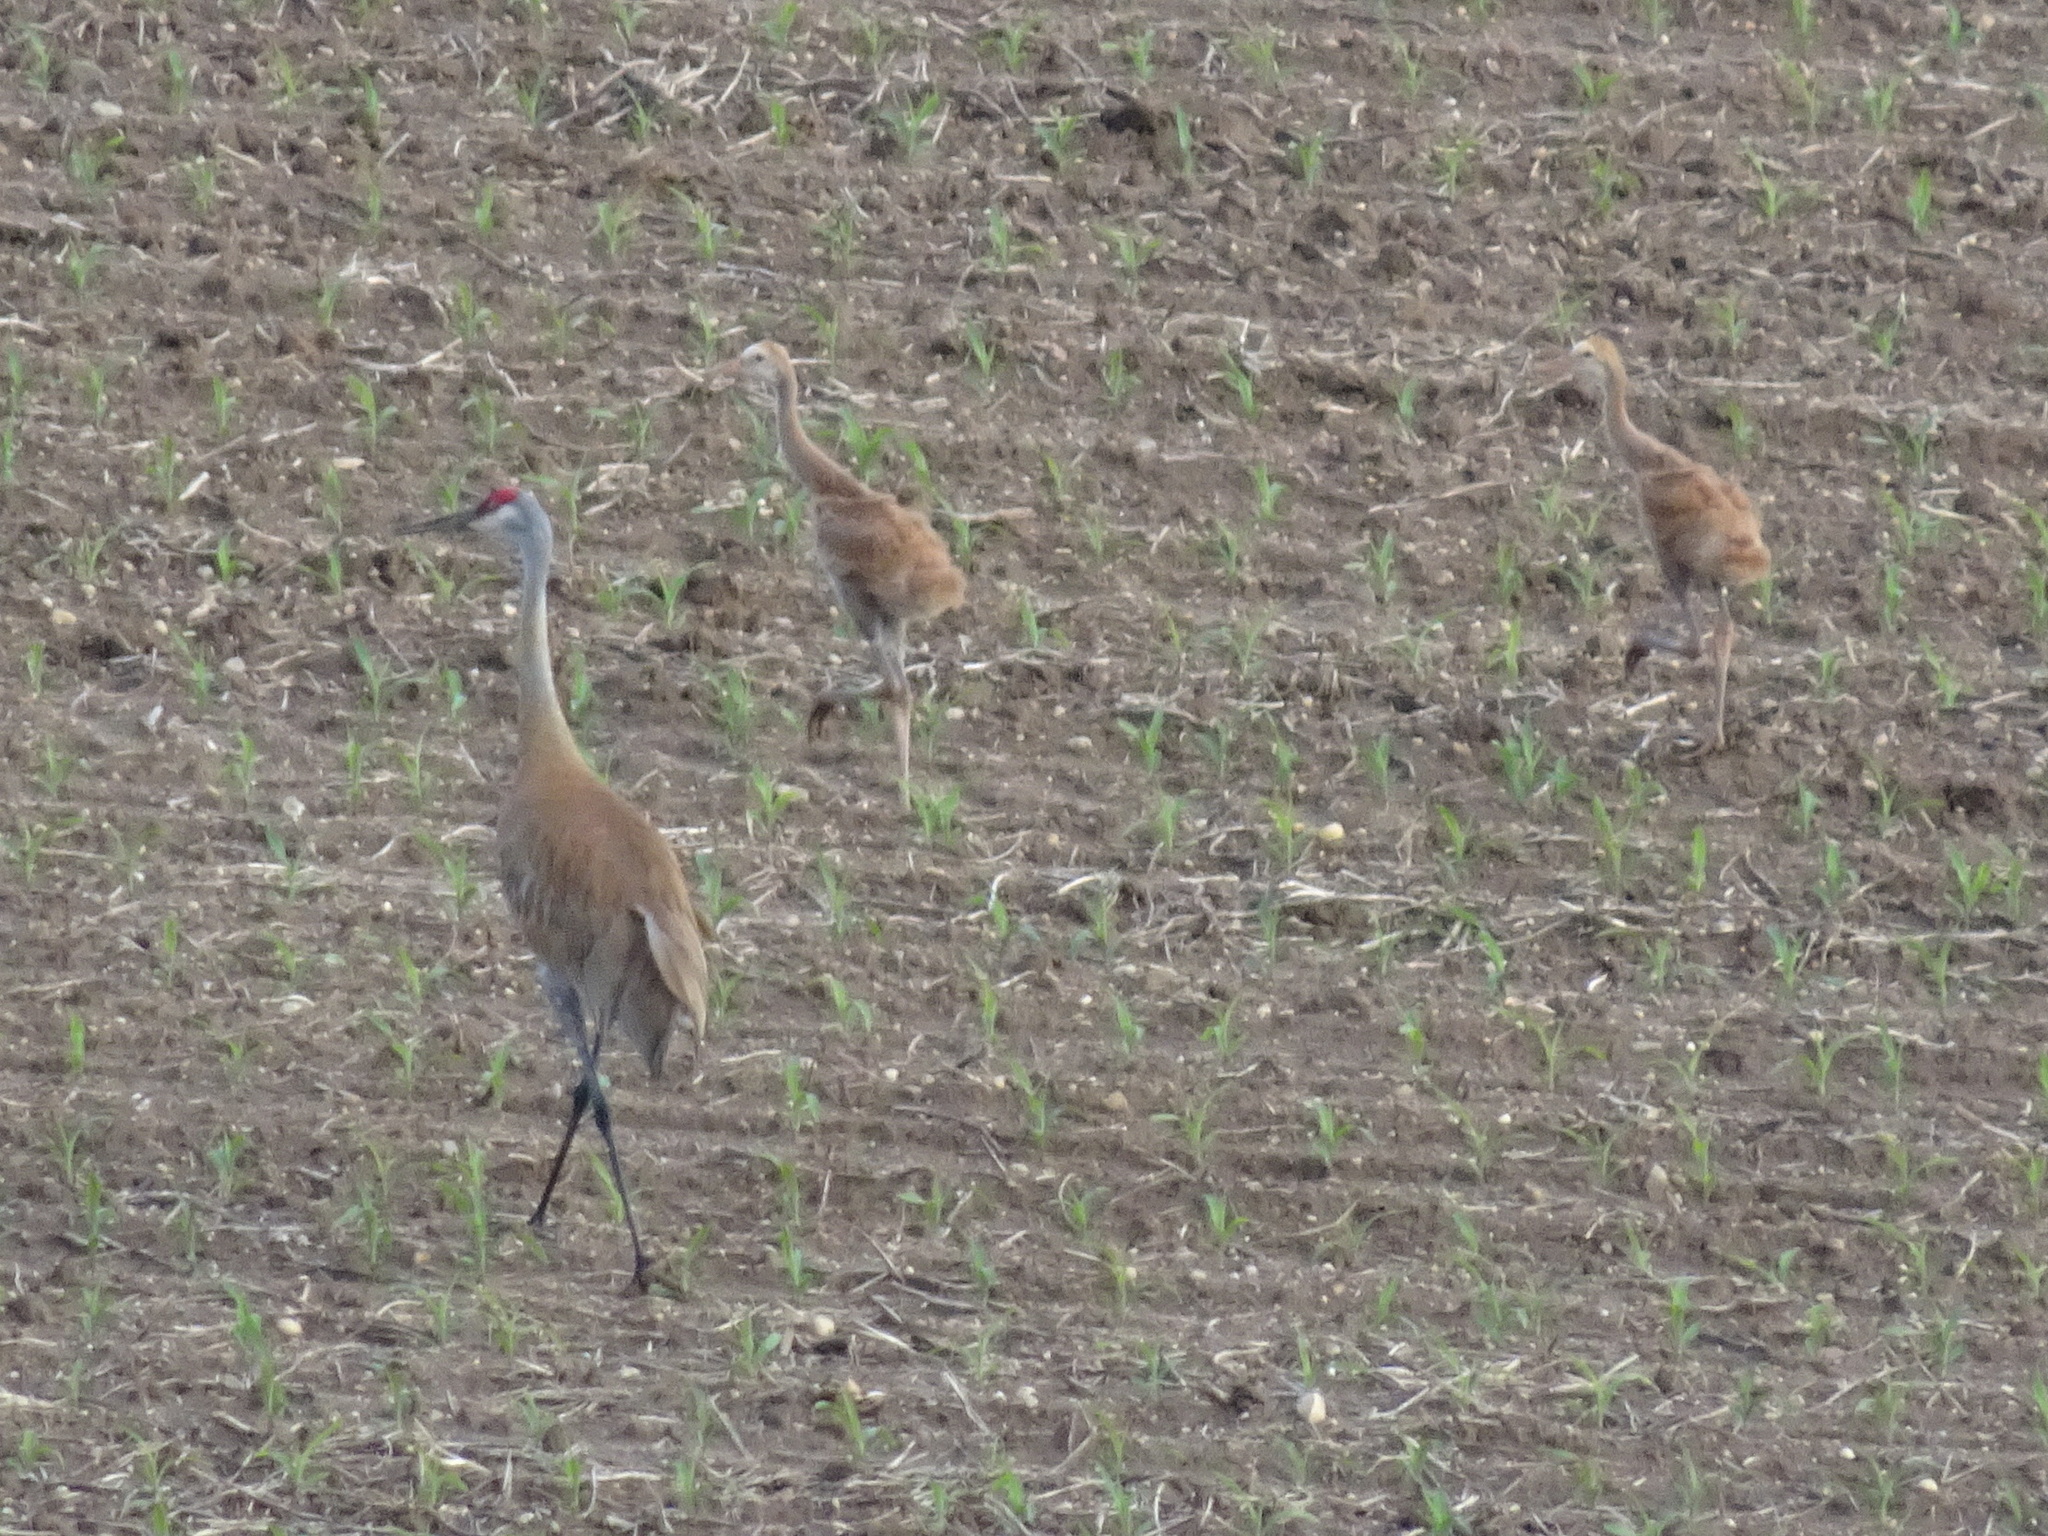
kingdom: Animalia
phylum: Chordata
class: Aves
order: Gruiformes
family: Gruidae
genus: Grus
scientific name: Grus canadensis
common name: Sandhill crane
